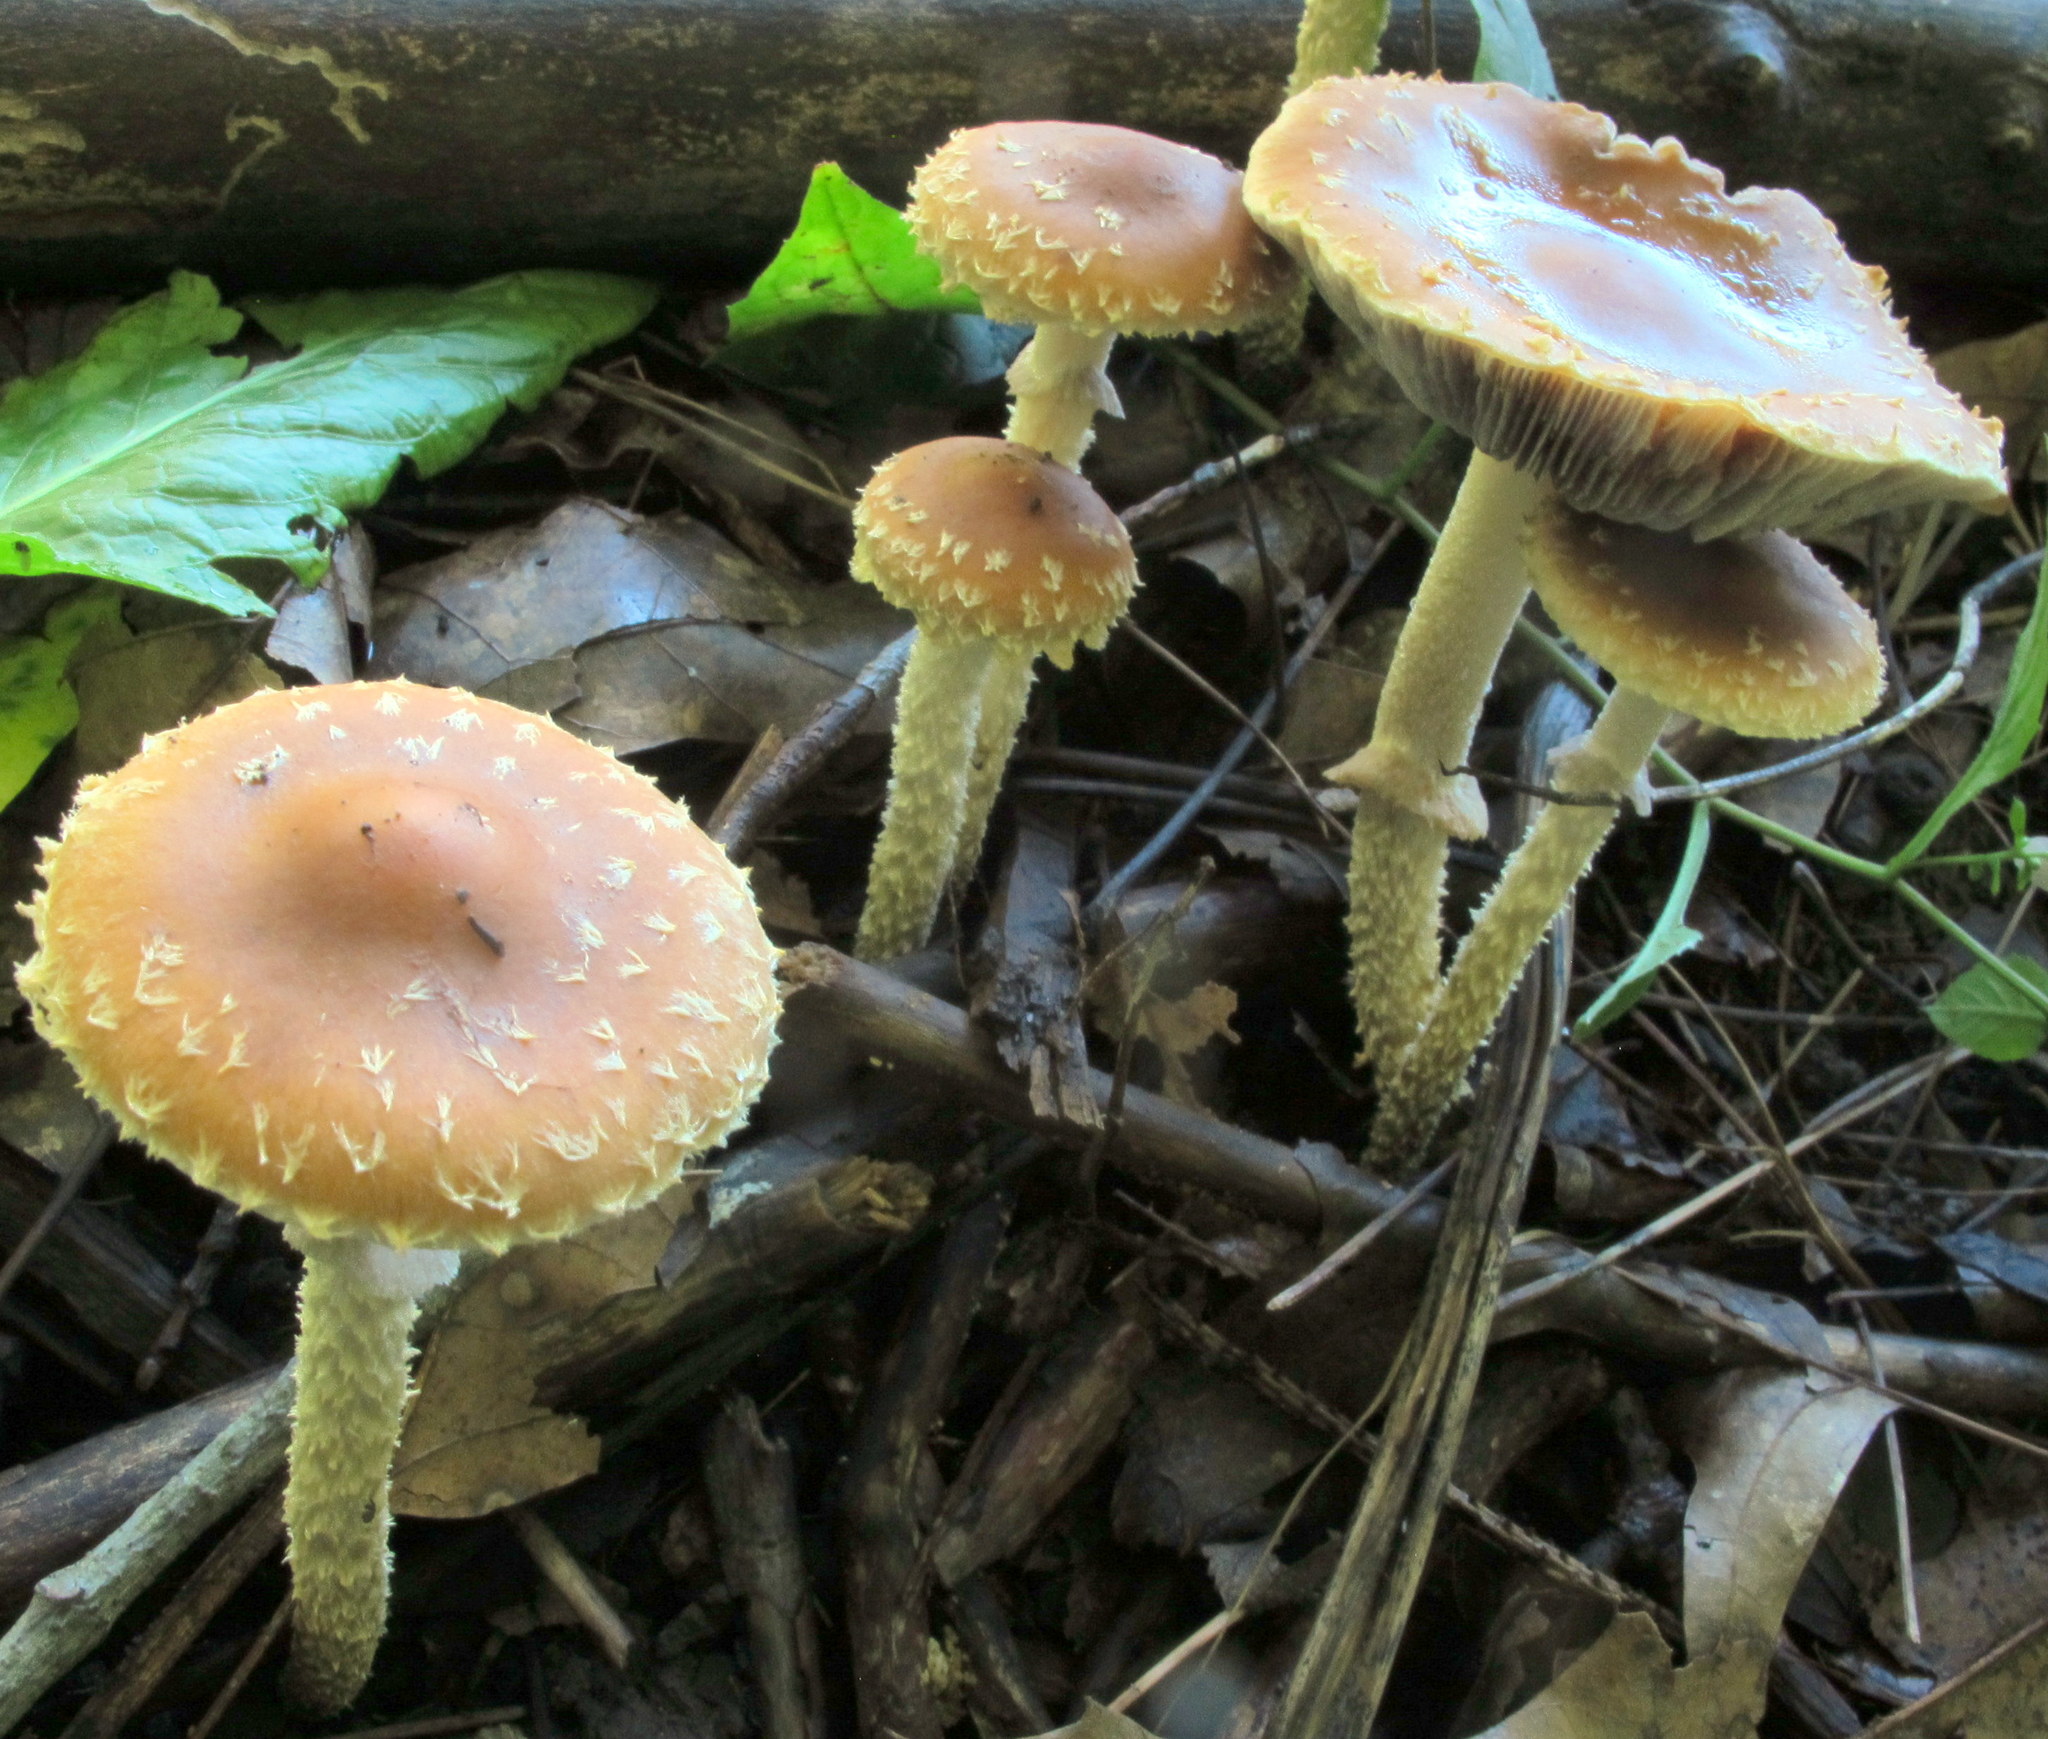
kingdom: Fungi
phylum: Basidiomycota
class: Agaricomycetes
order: Agaricales
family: Strophariaceae
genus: Leratiomyces
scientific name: Leratiomyces squamosus
